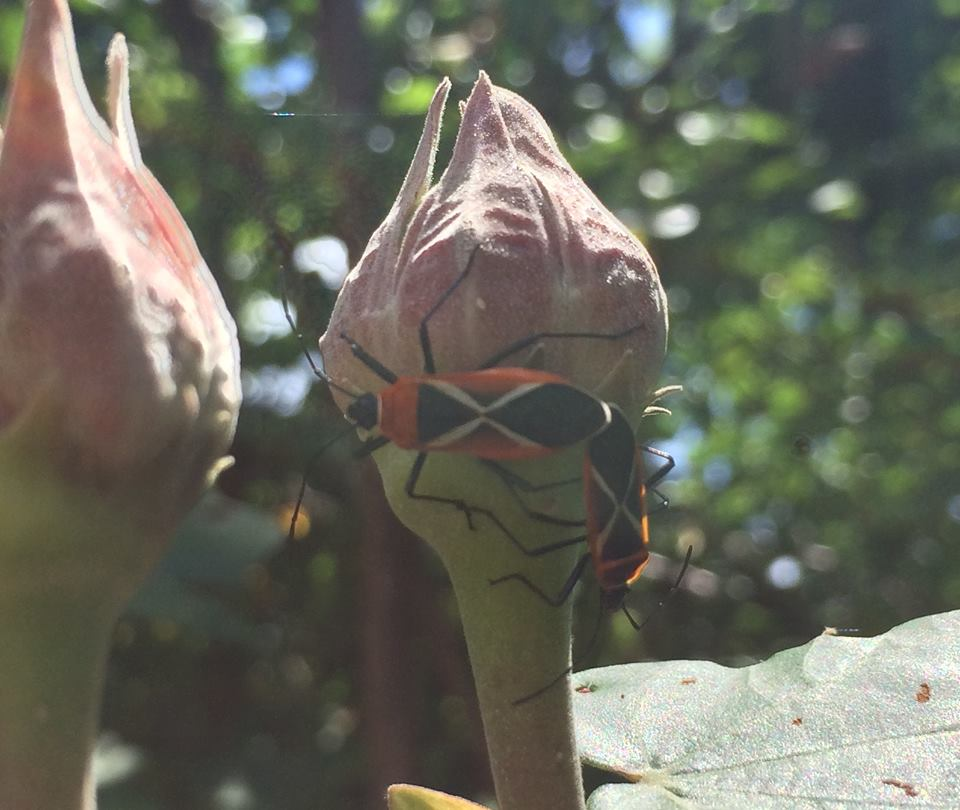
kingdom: Animalia
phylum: Arthropoda
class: Insecta
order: Hemiptera
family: Pyrrhocoridae
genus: Dysdercus
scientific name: Dysdercus decussatus
